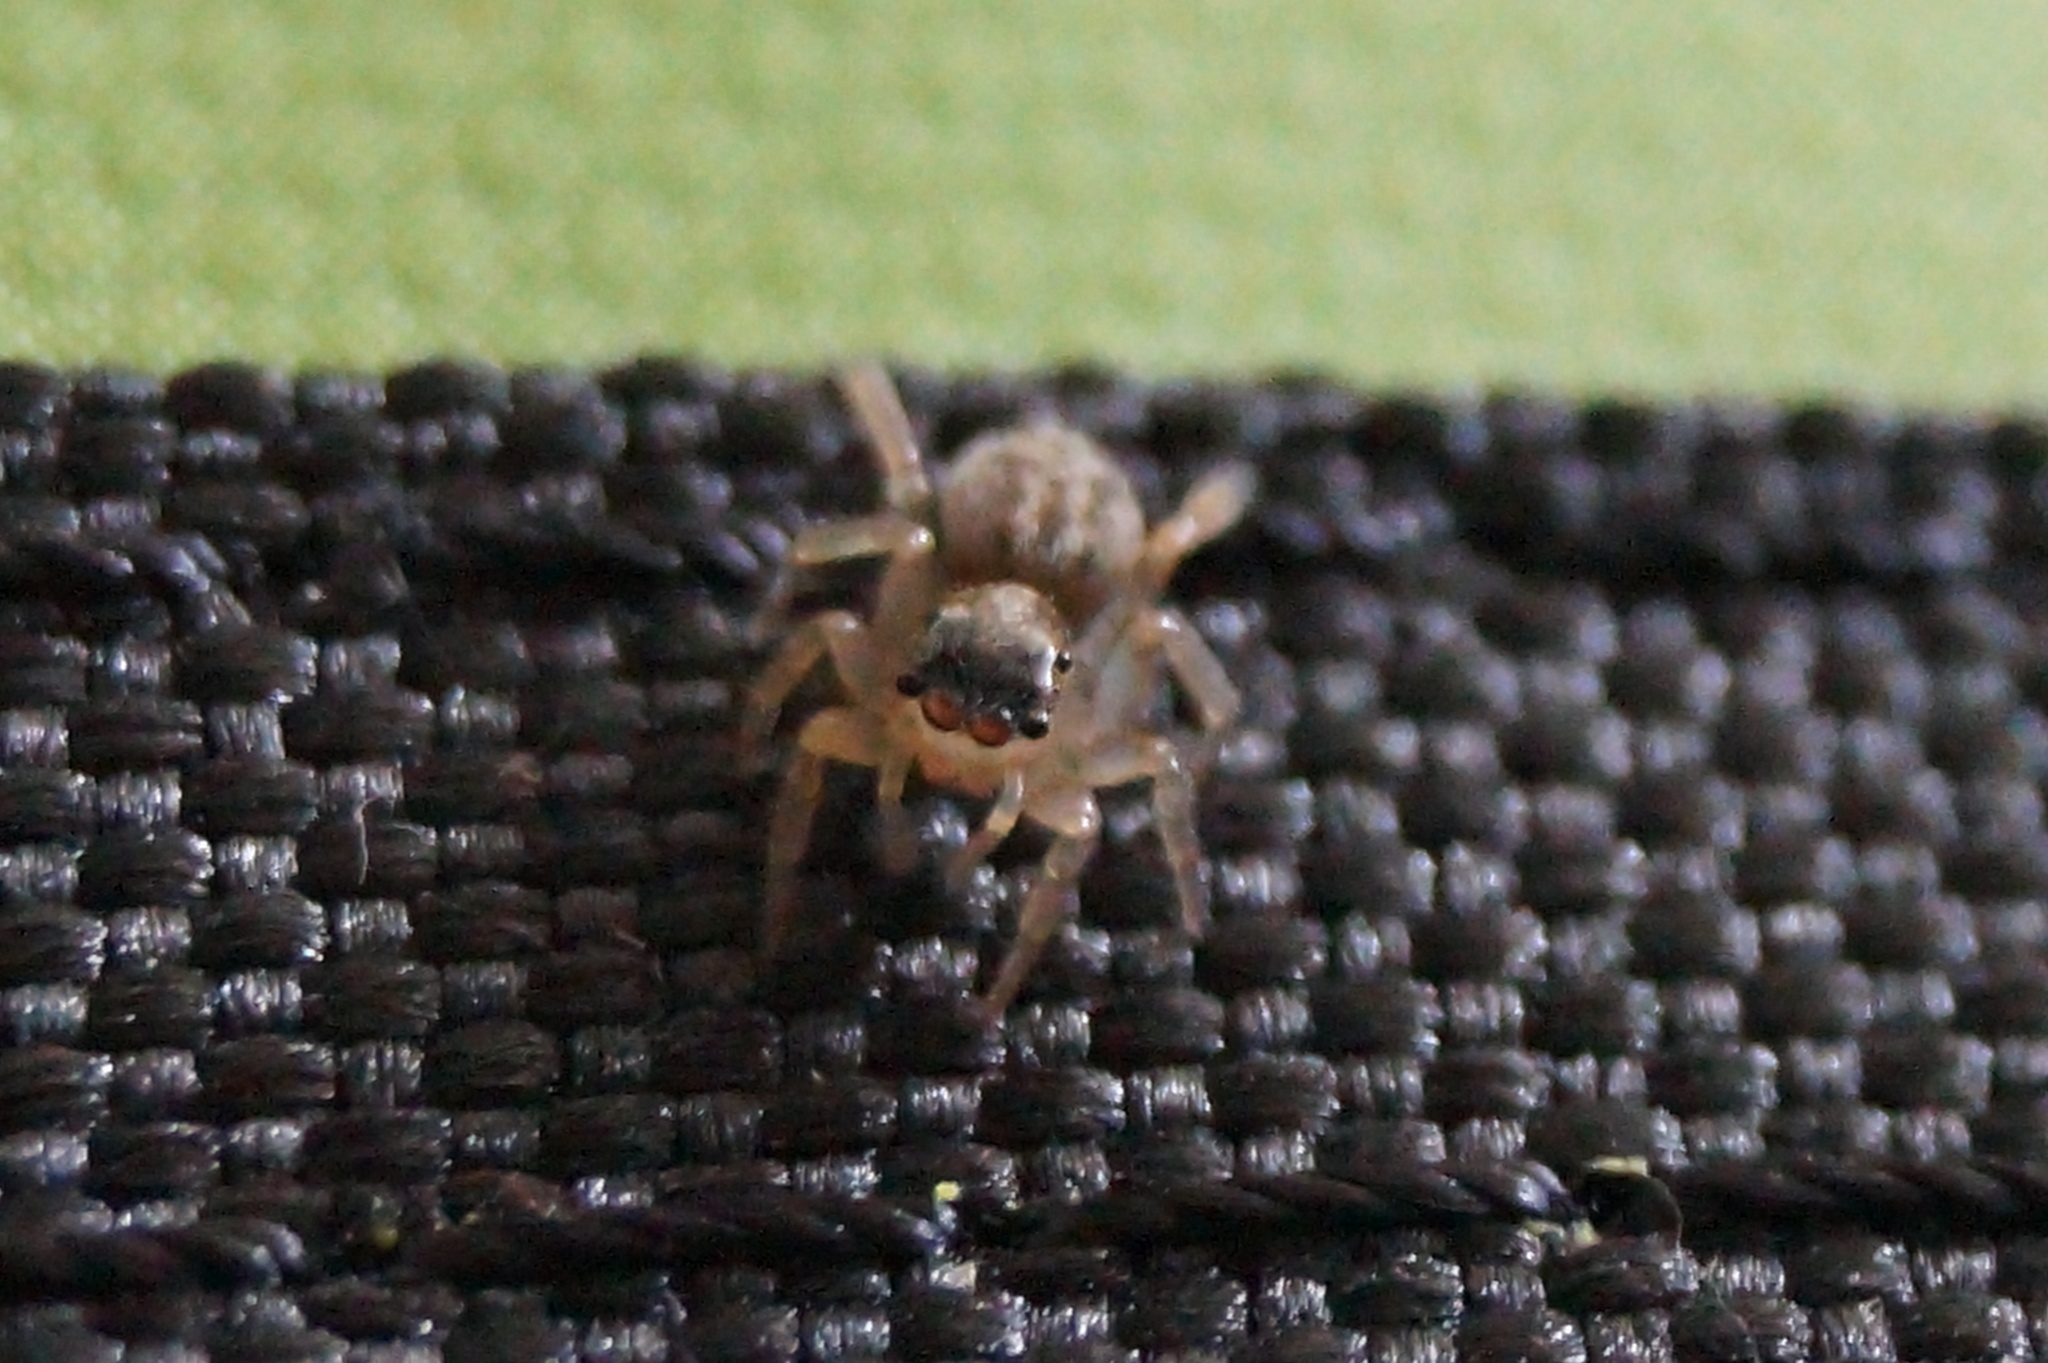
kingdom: Animalia
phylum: Arthropoda
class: Arachnida
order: Araneae
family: Salticidae
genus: Saitis
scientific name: Saitis barbipes
